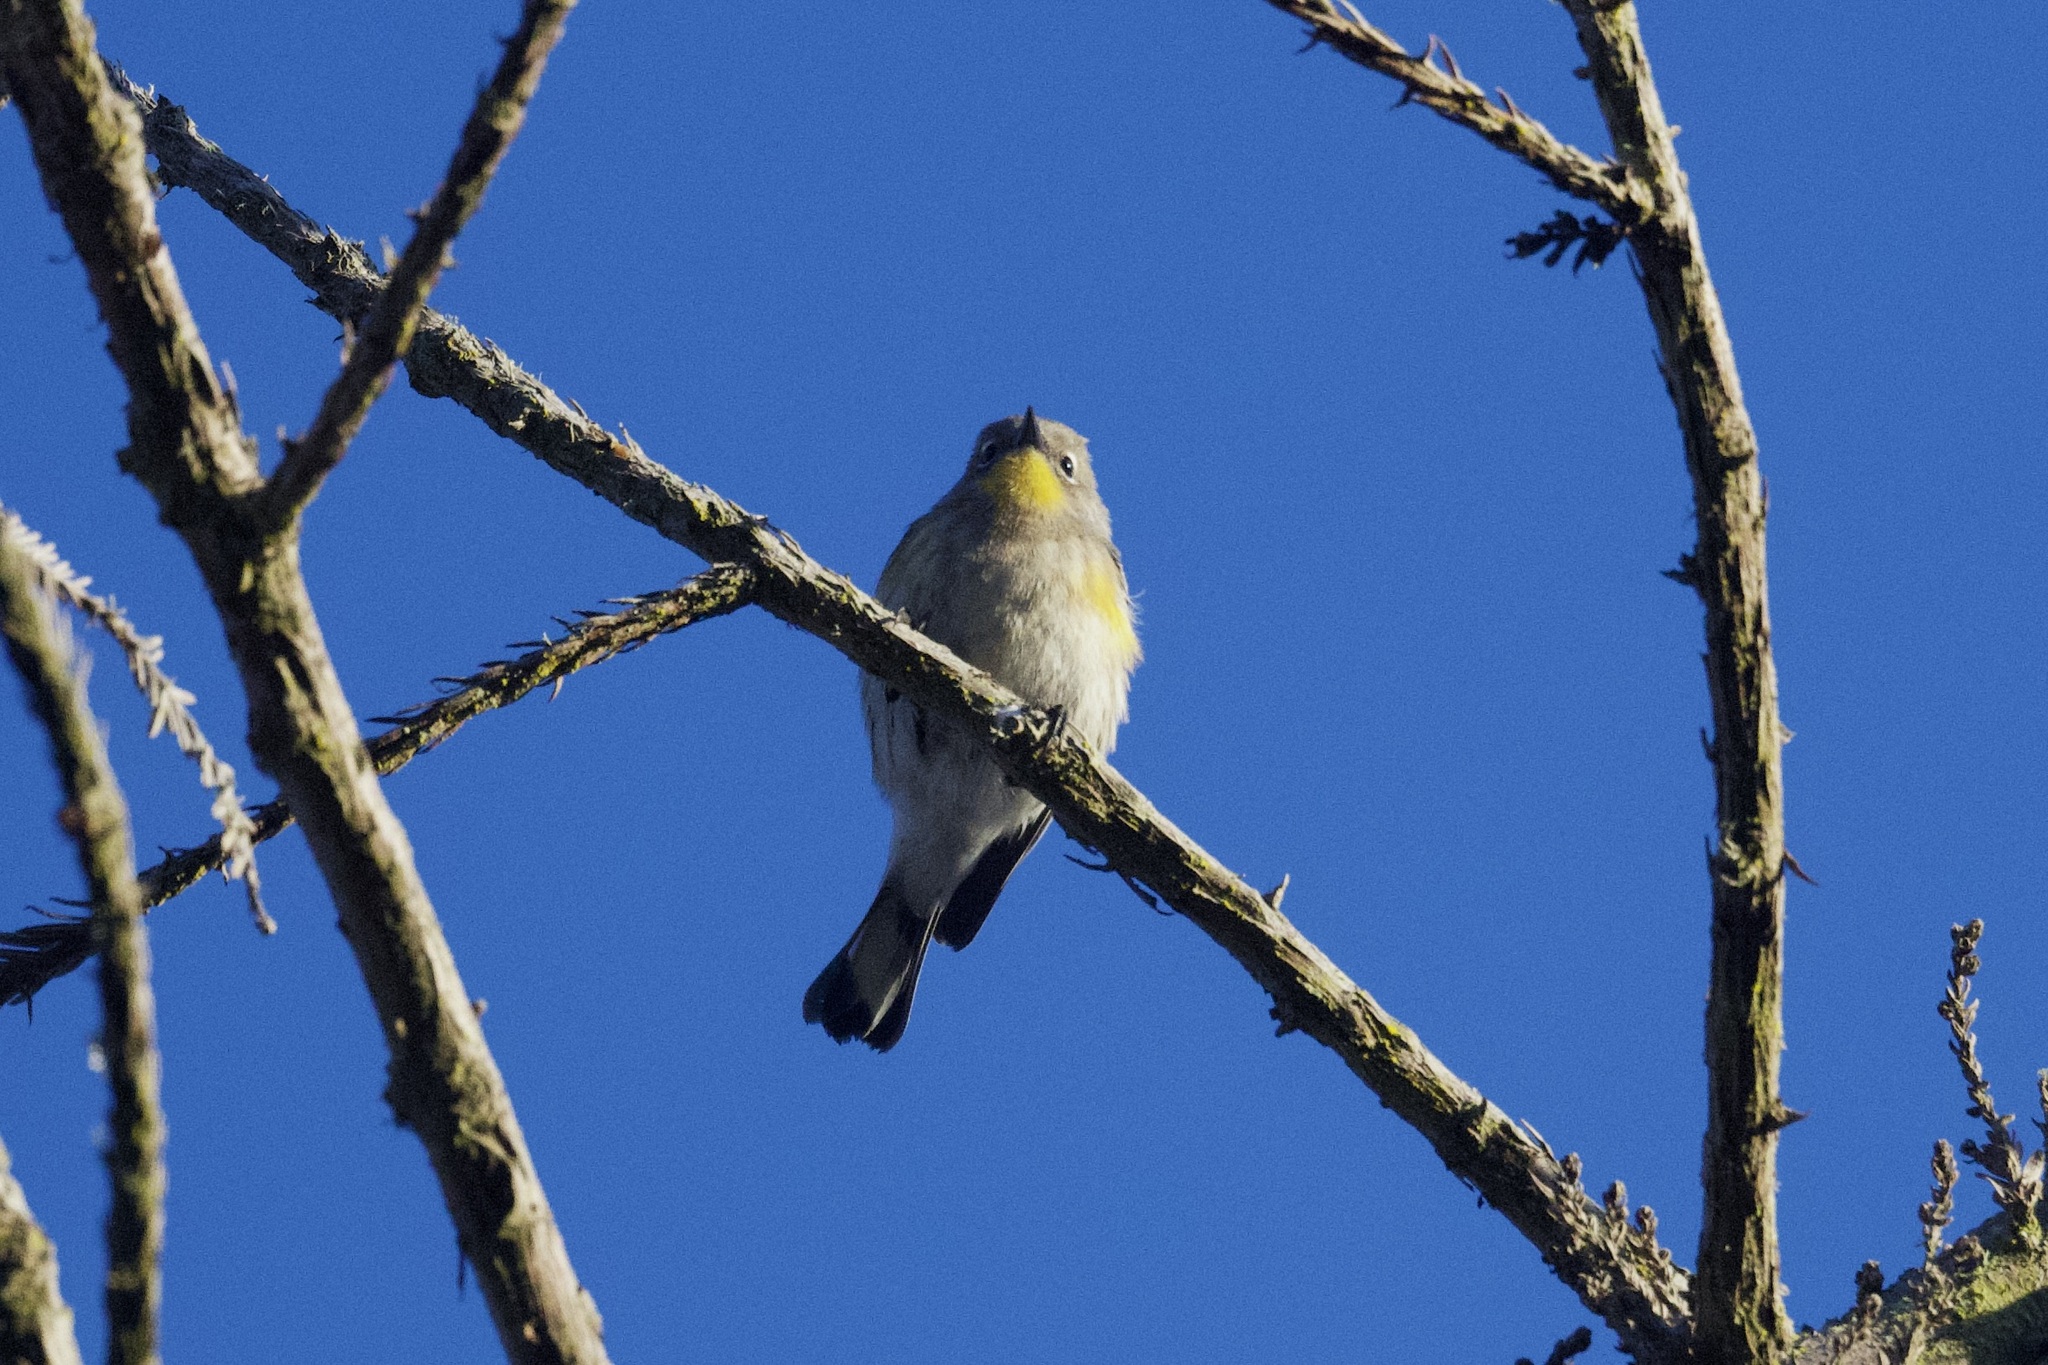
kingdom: Animalia
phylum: Chordata
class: Aves
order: Passeriformes
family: Parulidae
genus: Setophaga
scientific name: Setophaga auduboni
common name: Audubon's warbler
